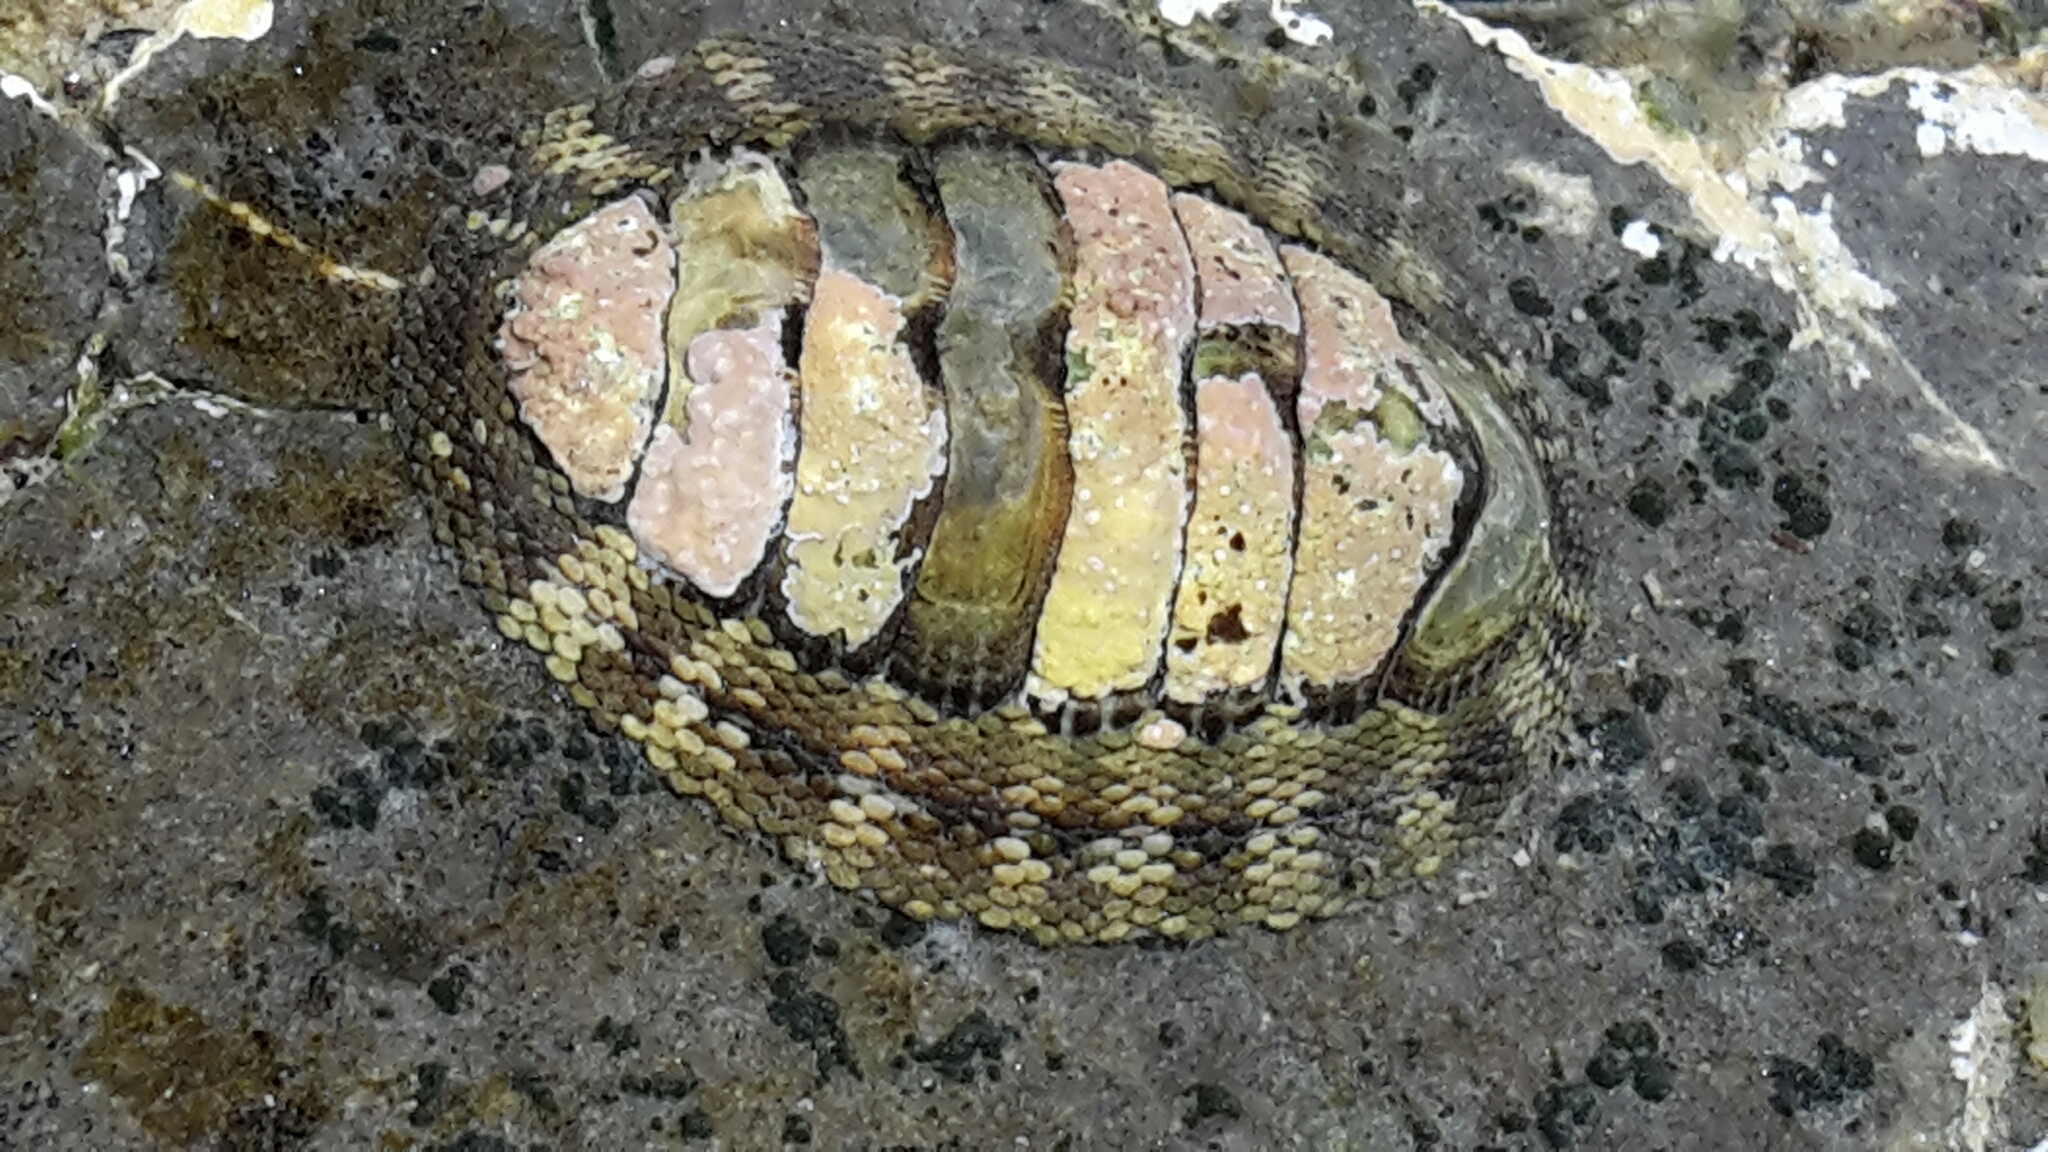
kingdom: Animalia
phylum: Mollusca
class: Polyplacophora
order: Chitonida
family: Chitonidae
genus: Sypharochiton
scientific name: Sypharochiton pelliserpentis
